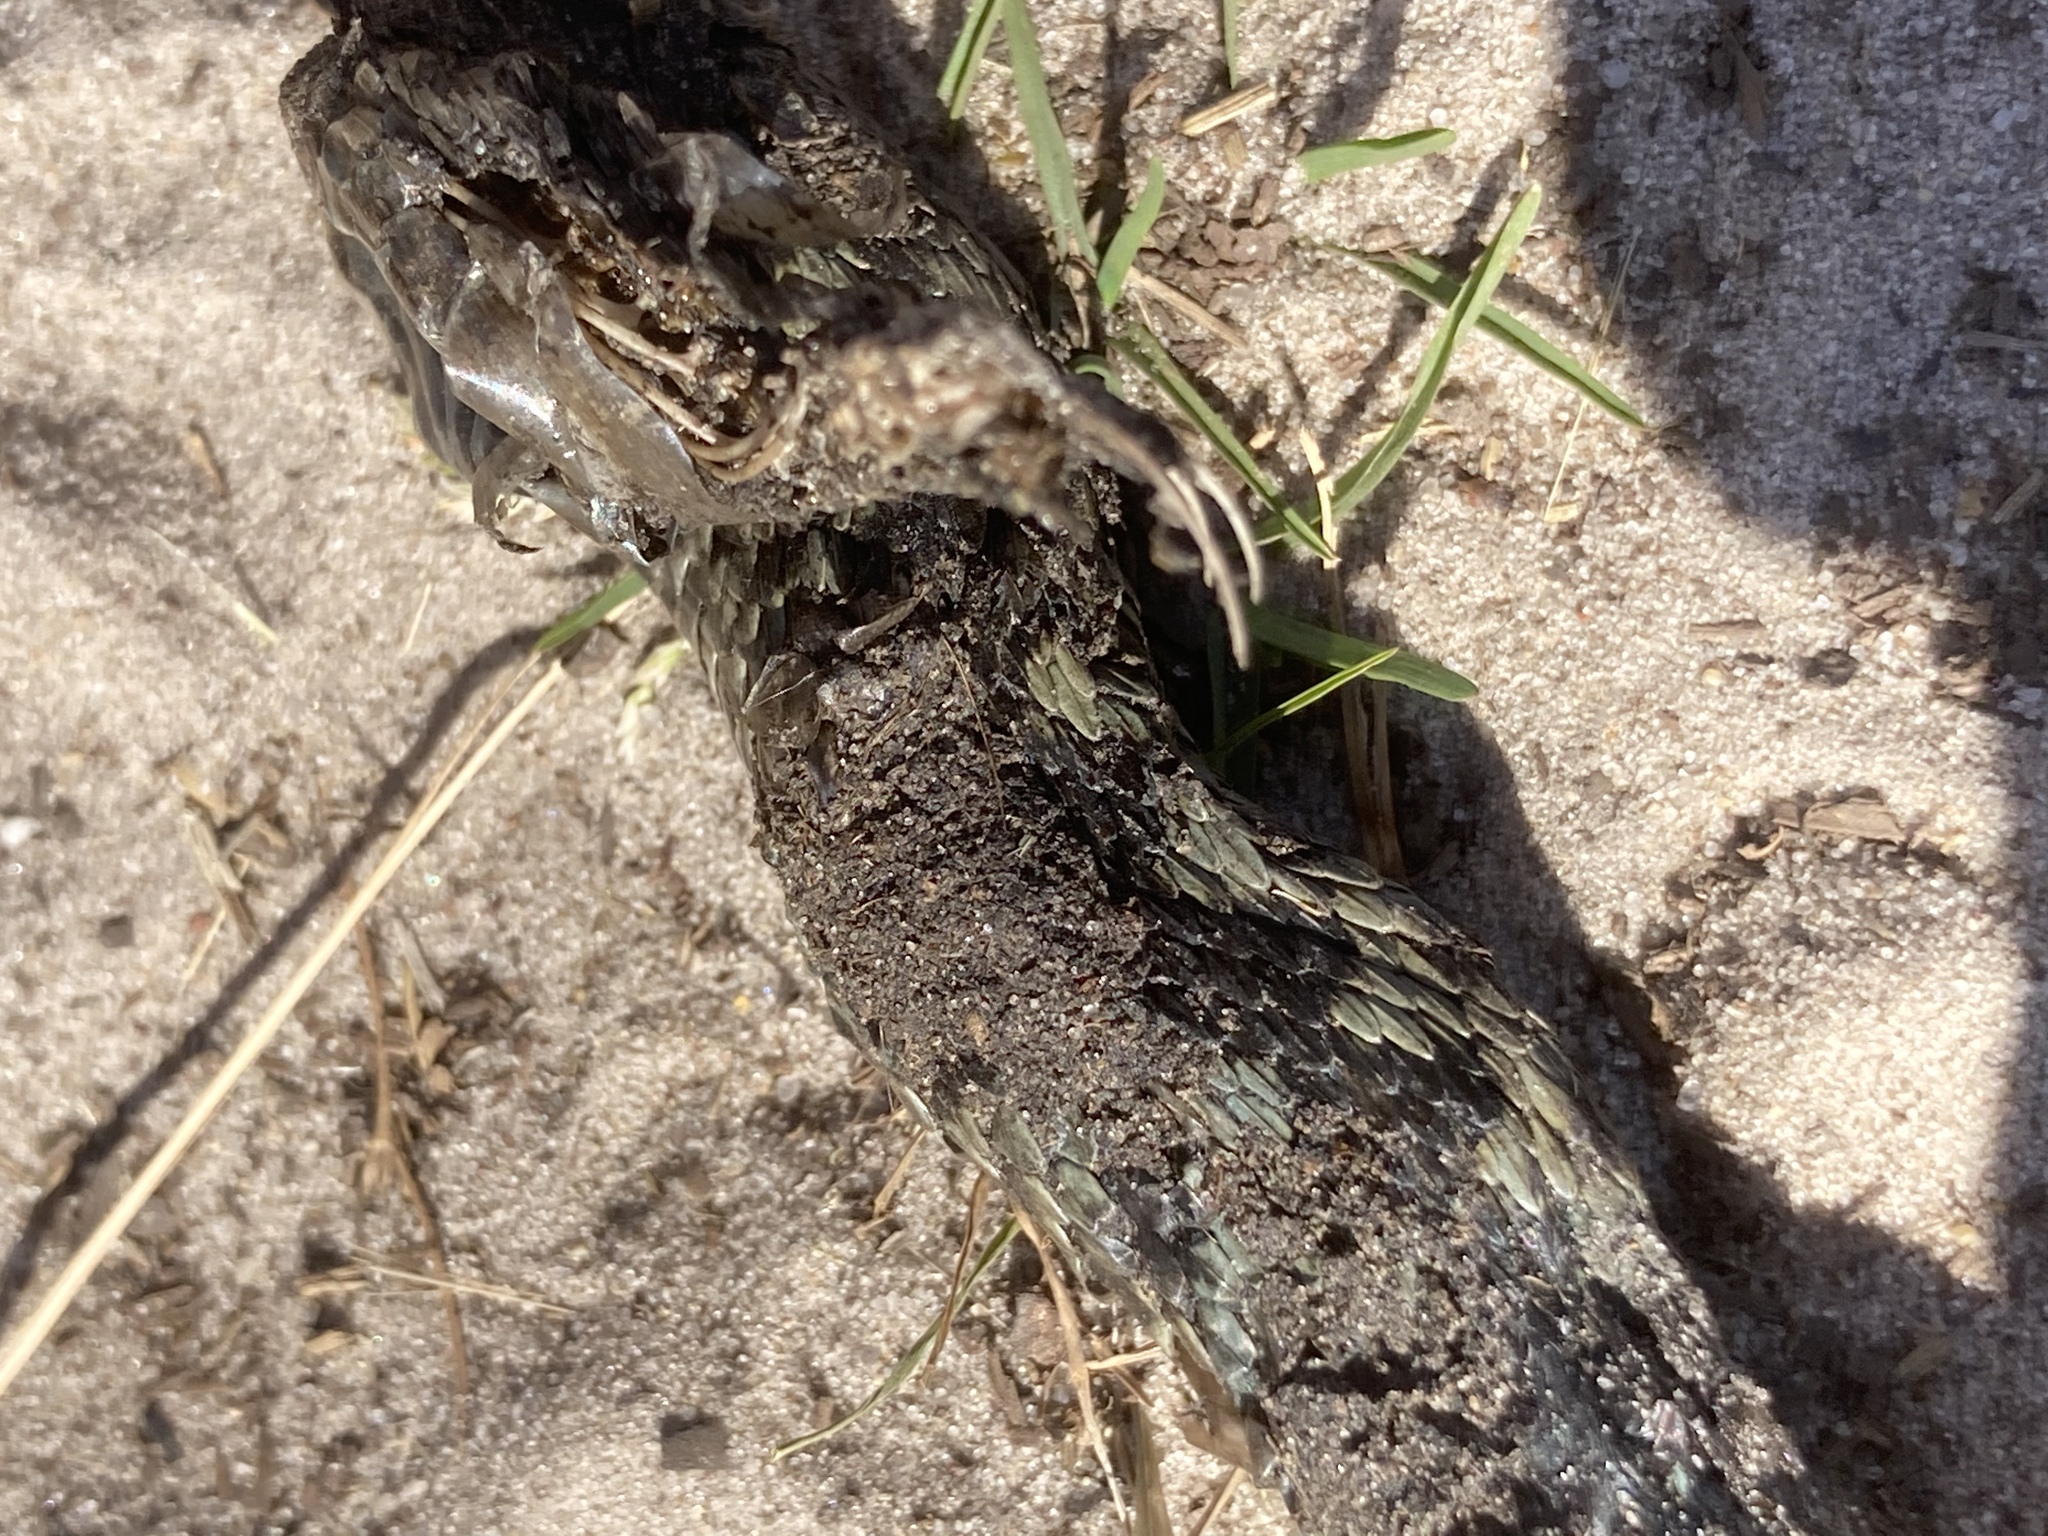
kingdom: Animalia
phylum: Chordata
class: Squamata
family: Viperidae
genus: Vipera
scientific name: Vipera berus
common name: Adder
